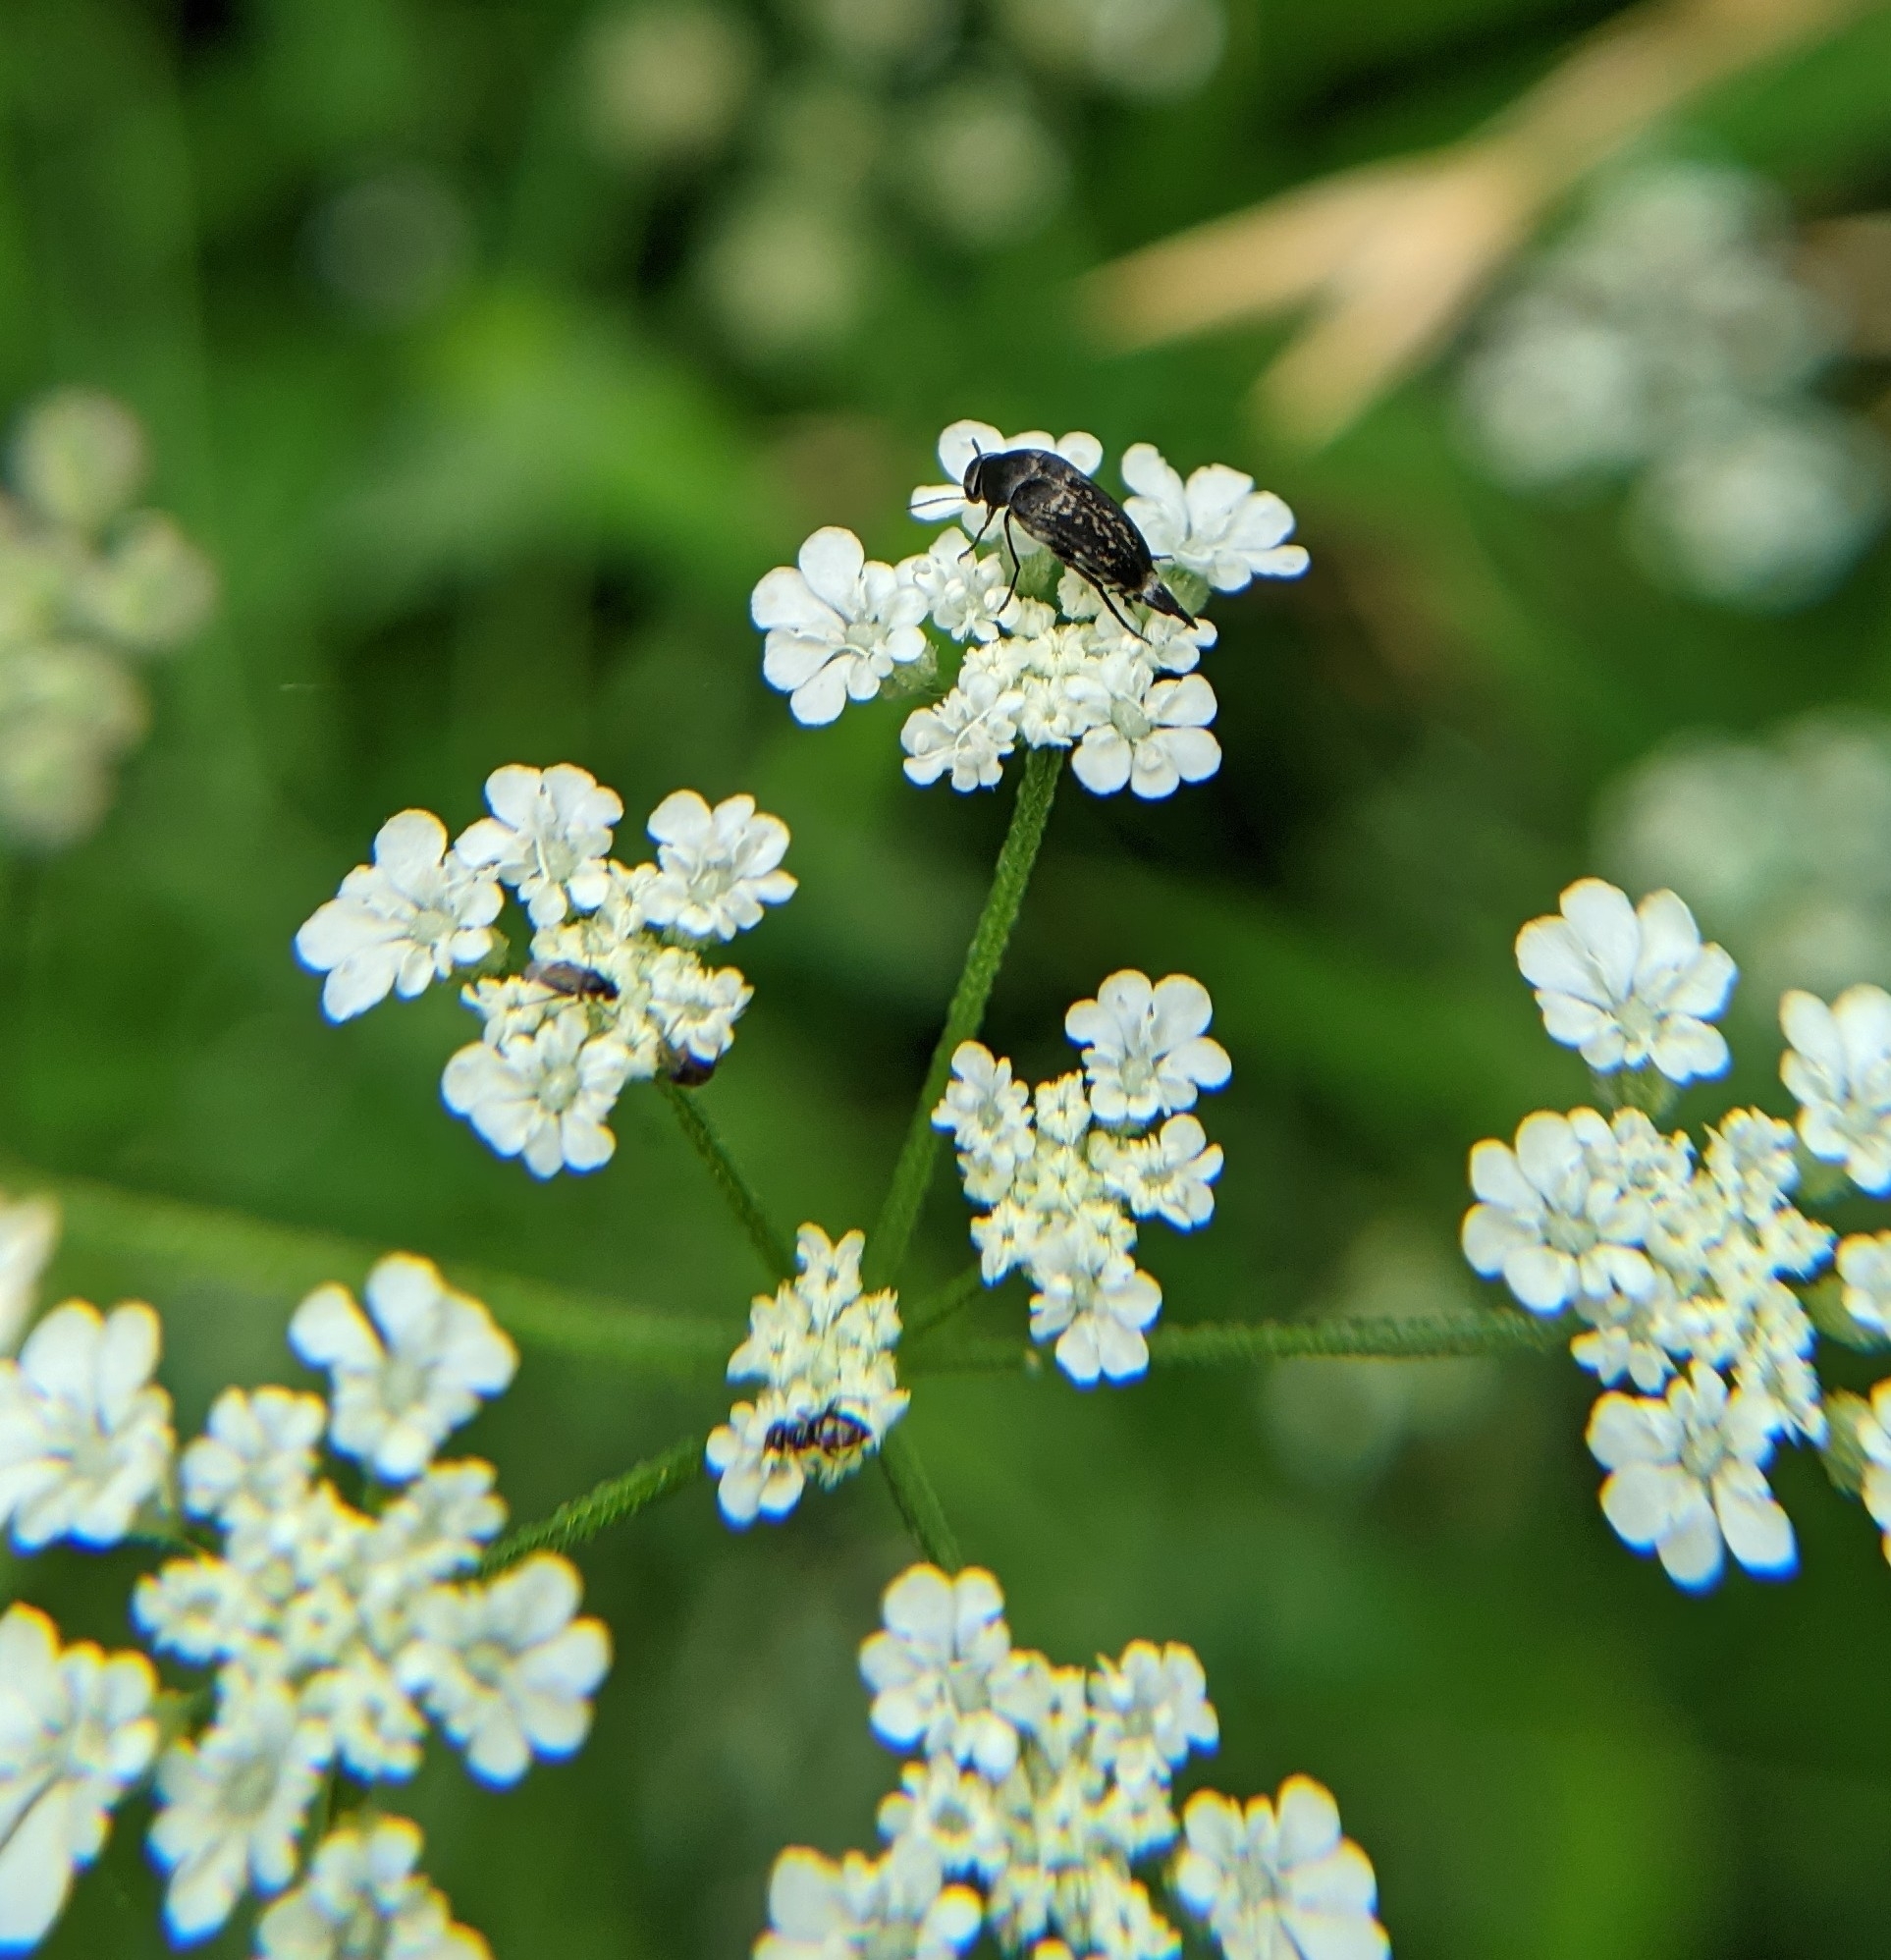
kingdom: Plantae
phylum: Tracheophyta
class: Magnoliopsida
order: Apiales
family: Apiaceae
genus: Torilis
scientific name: Torilis arvensis
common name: Spreading hedge-parsley
